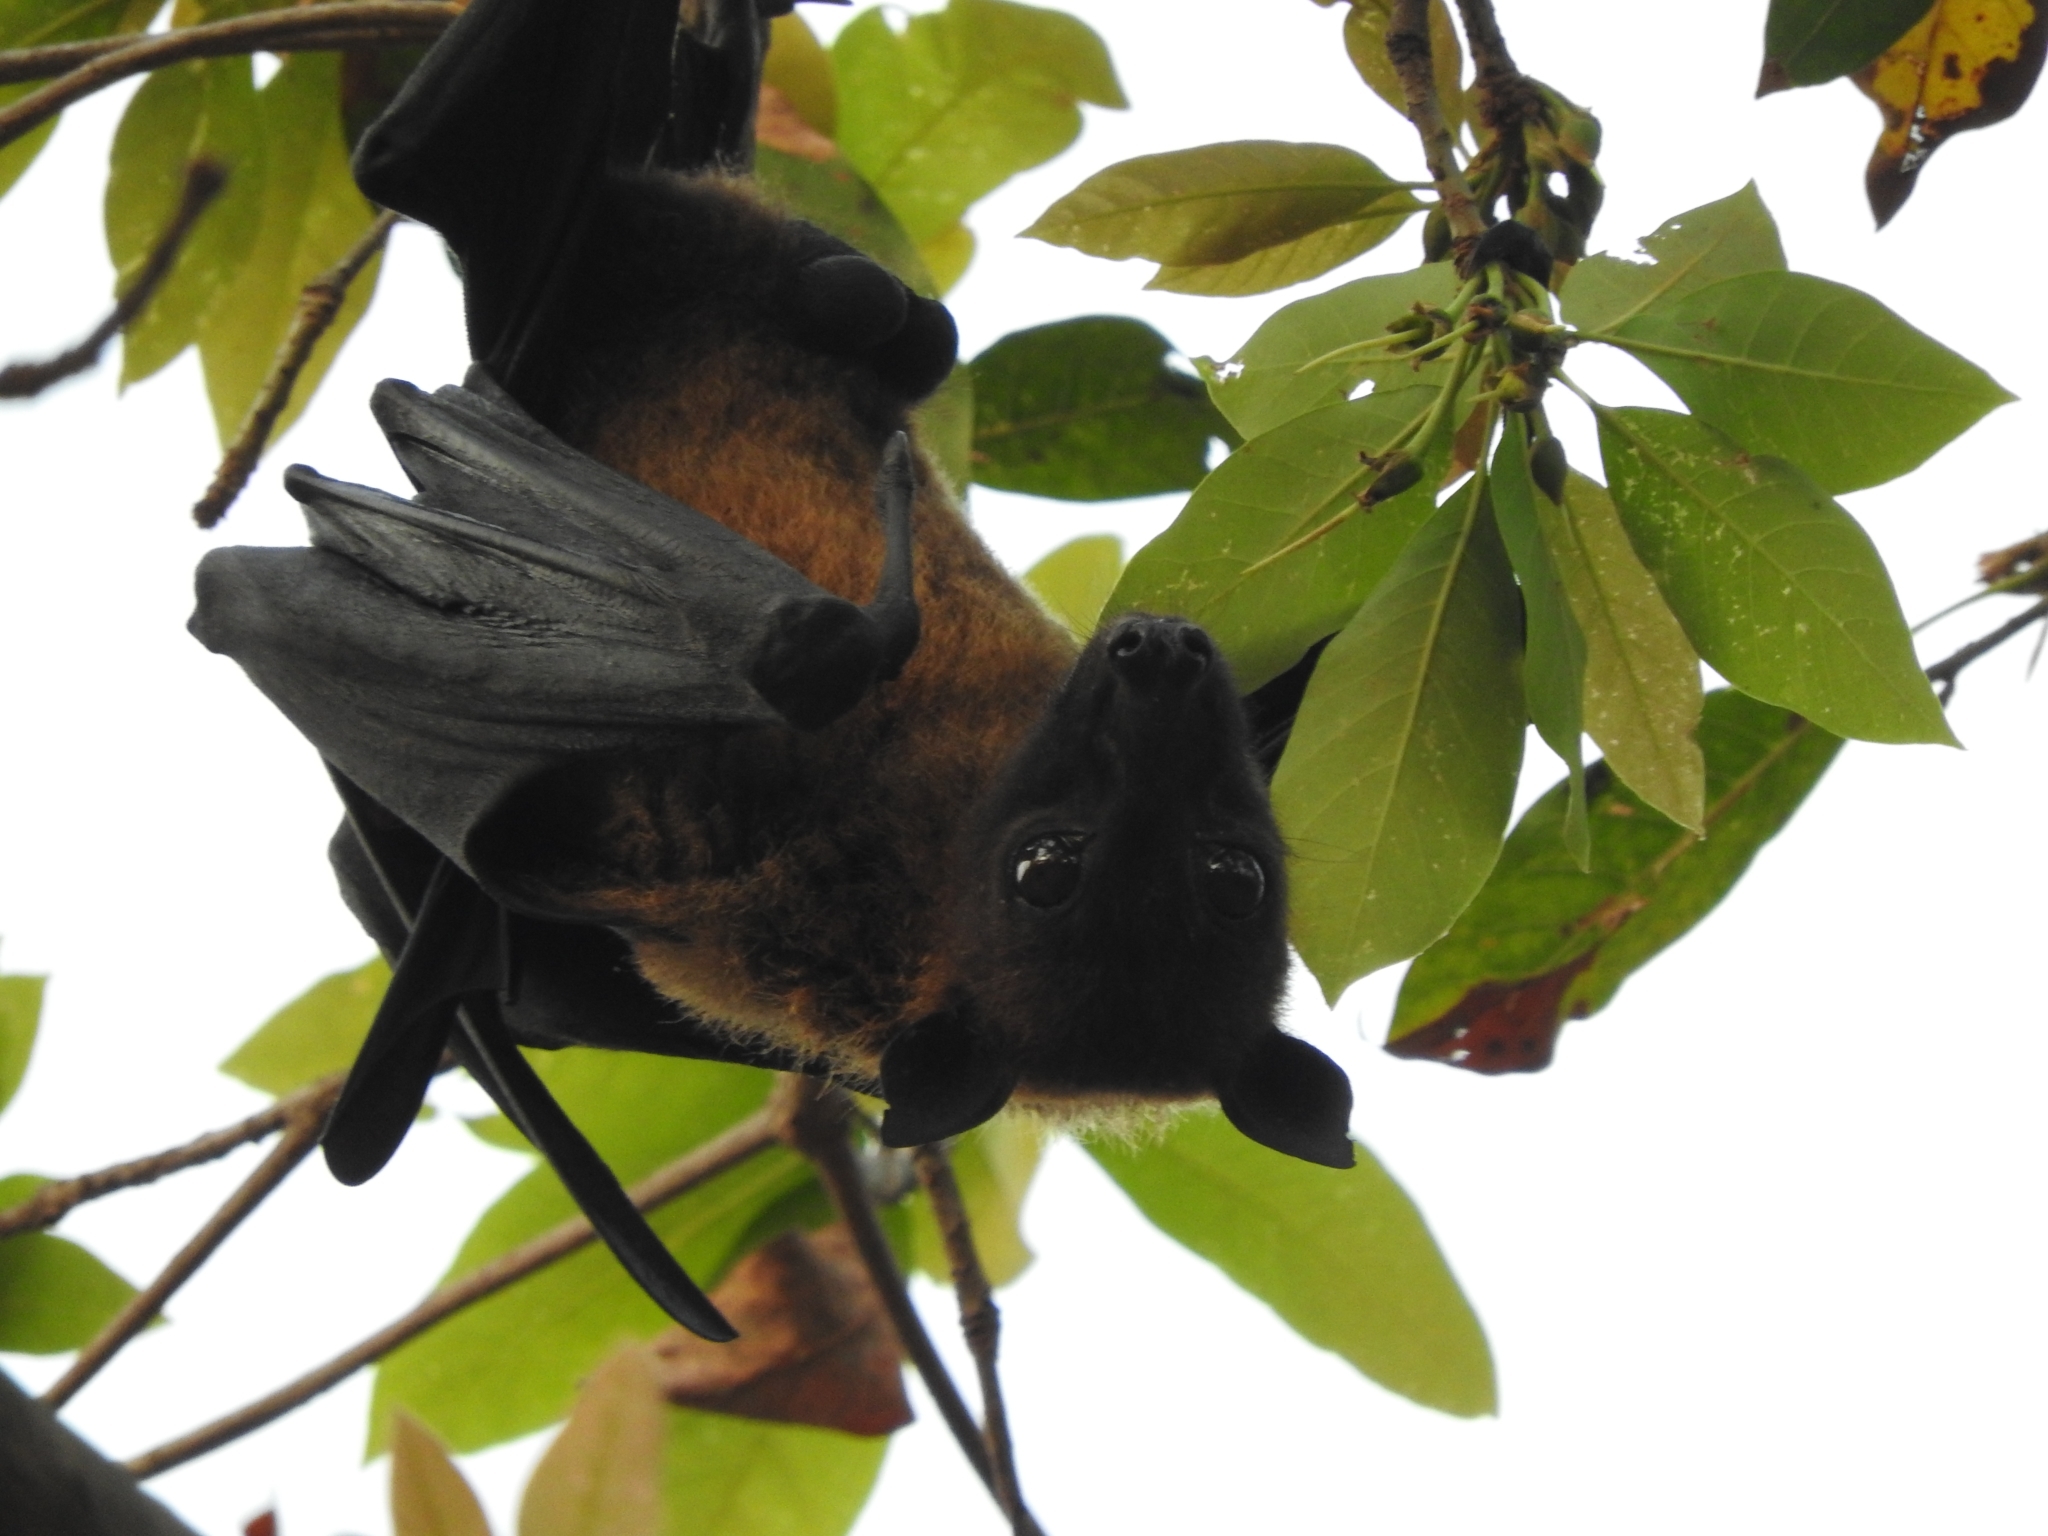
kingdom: Animalia
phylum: Chordata
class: Mammalia
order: Chiroptera
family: Pteropodidae
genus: Pteropus
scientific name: Pteropus vampyrus
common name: Large flying fox
